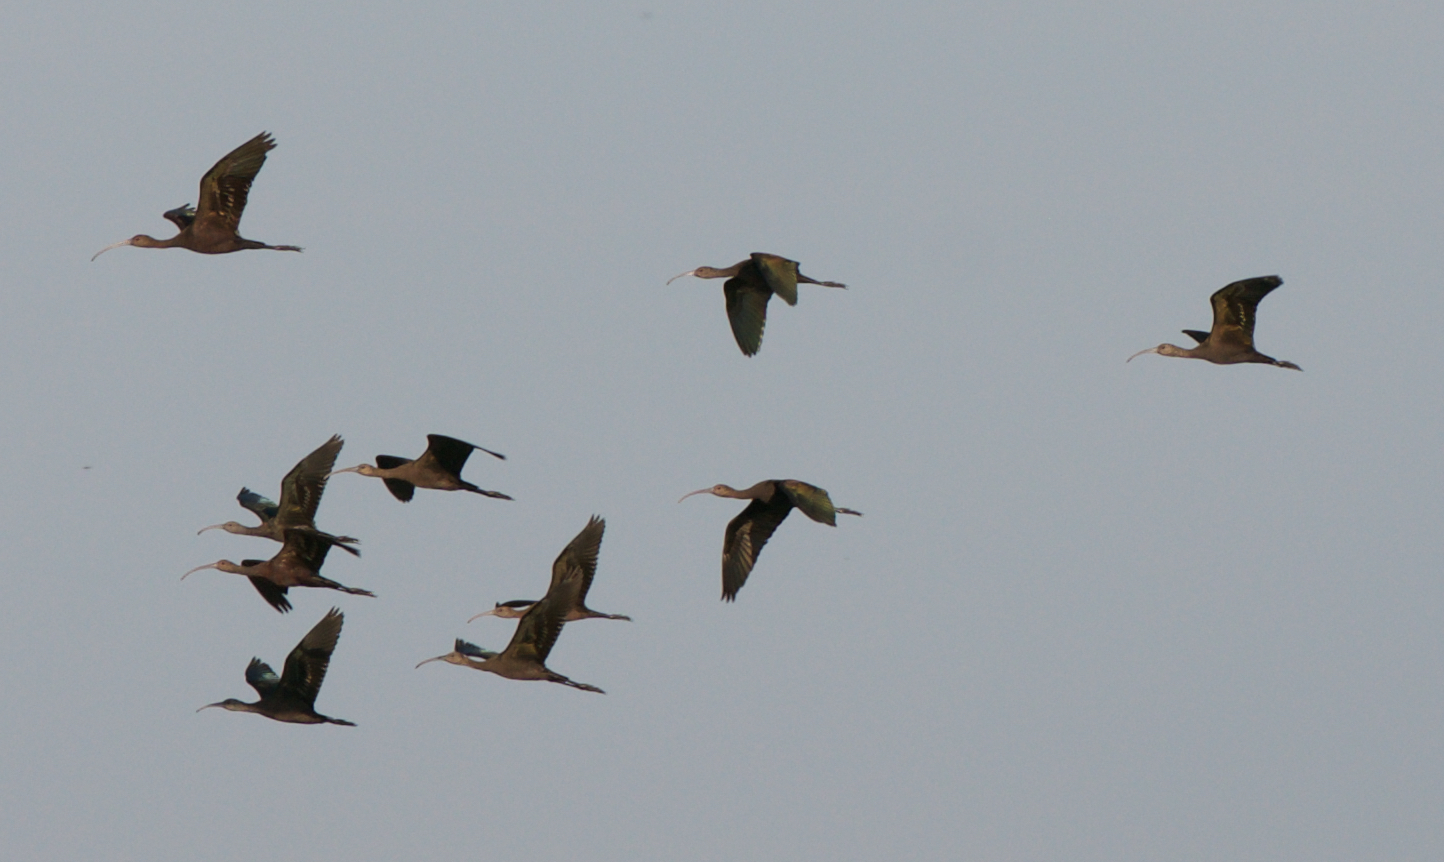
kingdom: Animalia
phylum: Chordata
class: Aves
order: Pelecaniformes
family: Threskiornithidae
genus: Plegadis
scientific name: Plegadis chihi
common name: White-faced ibis
